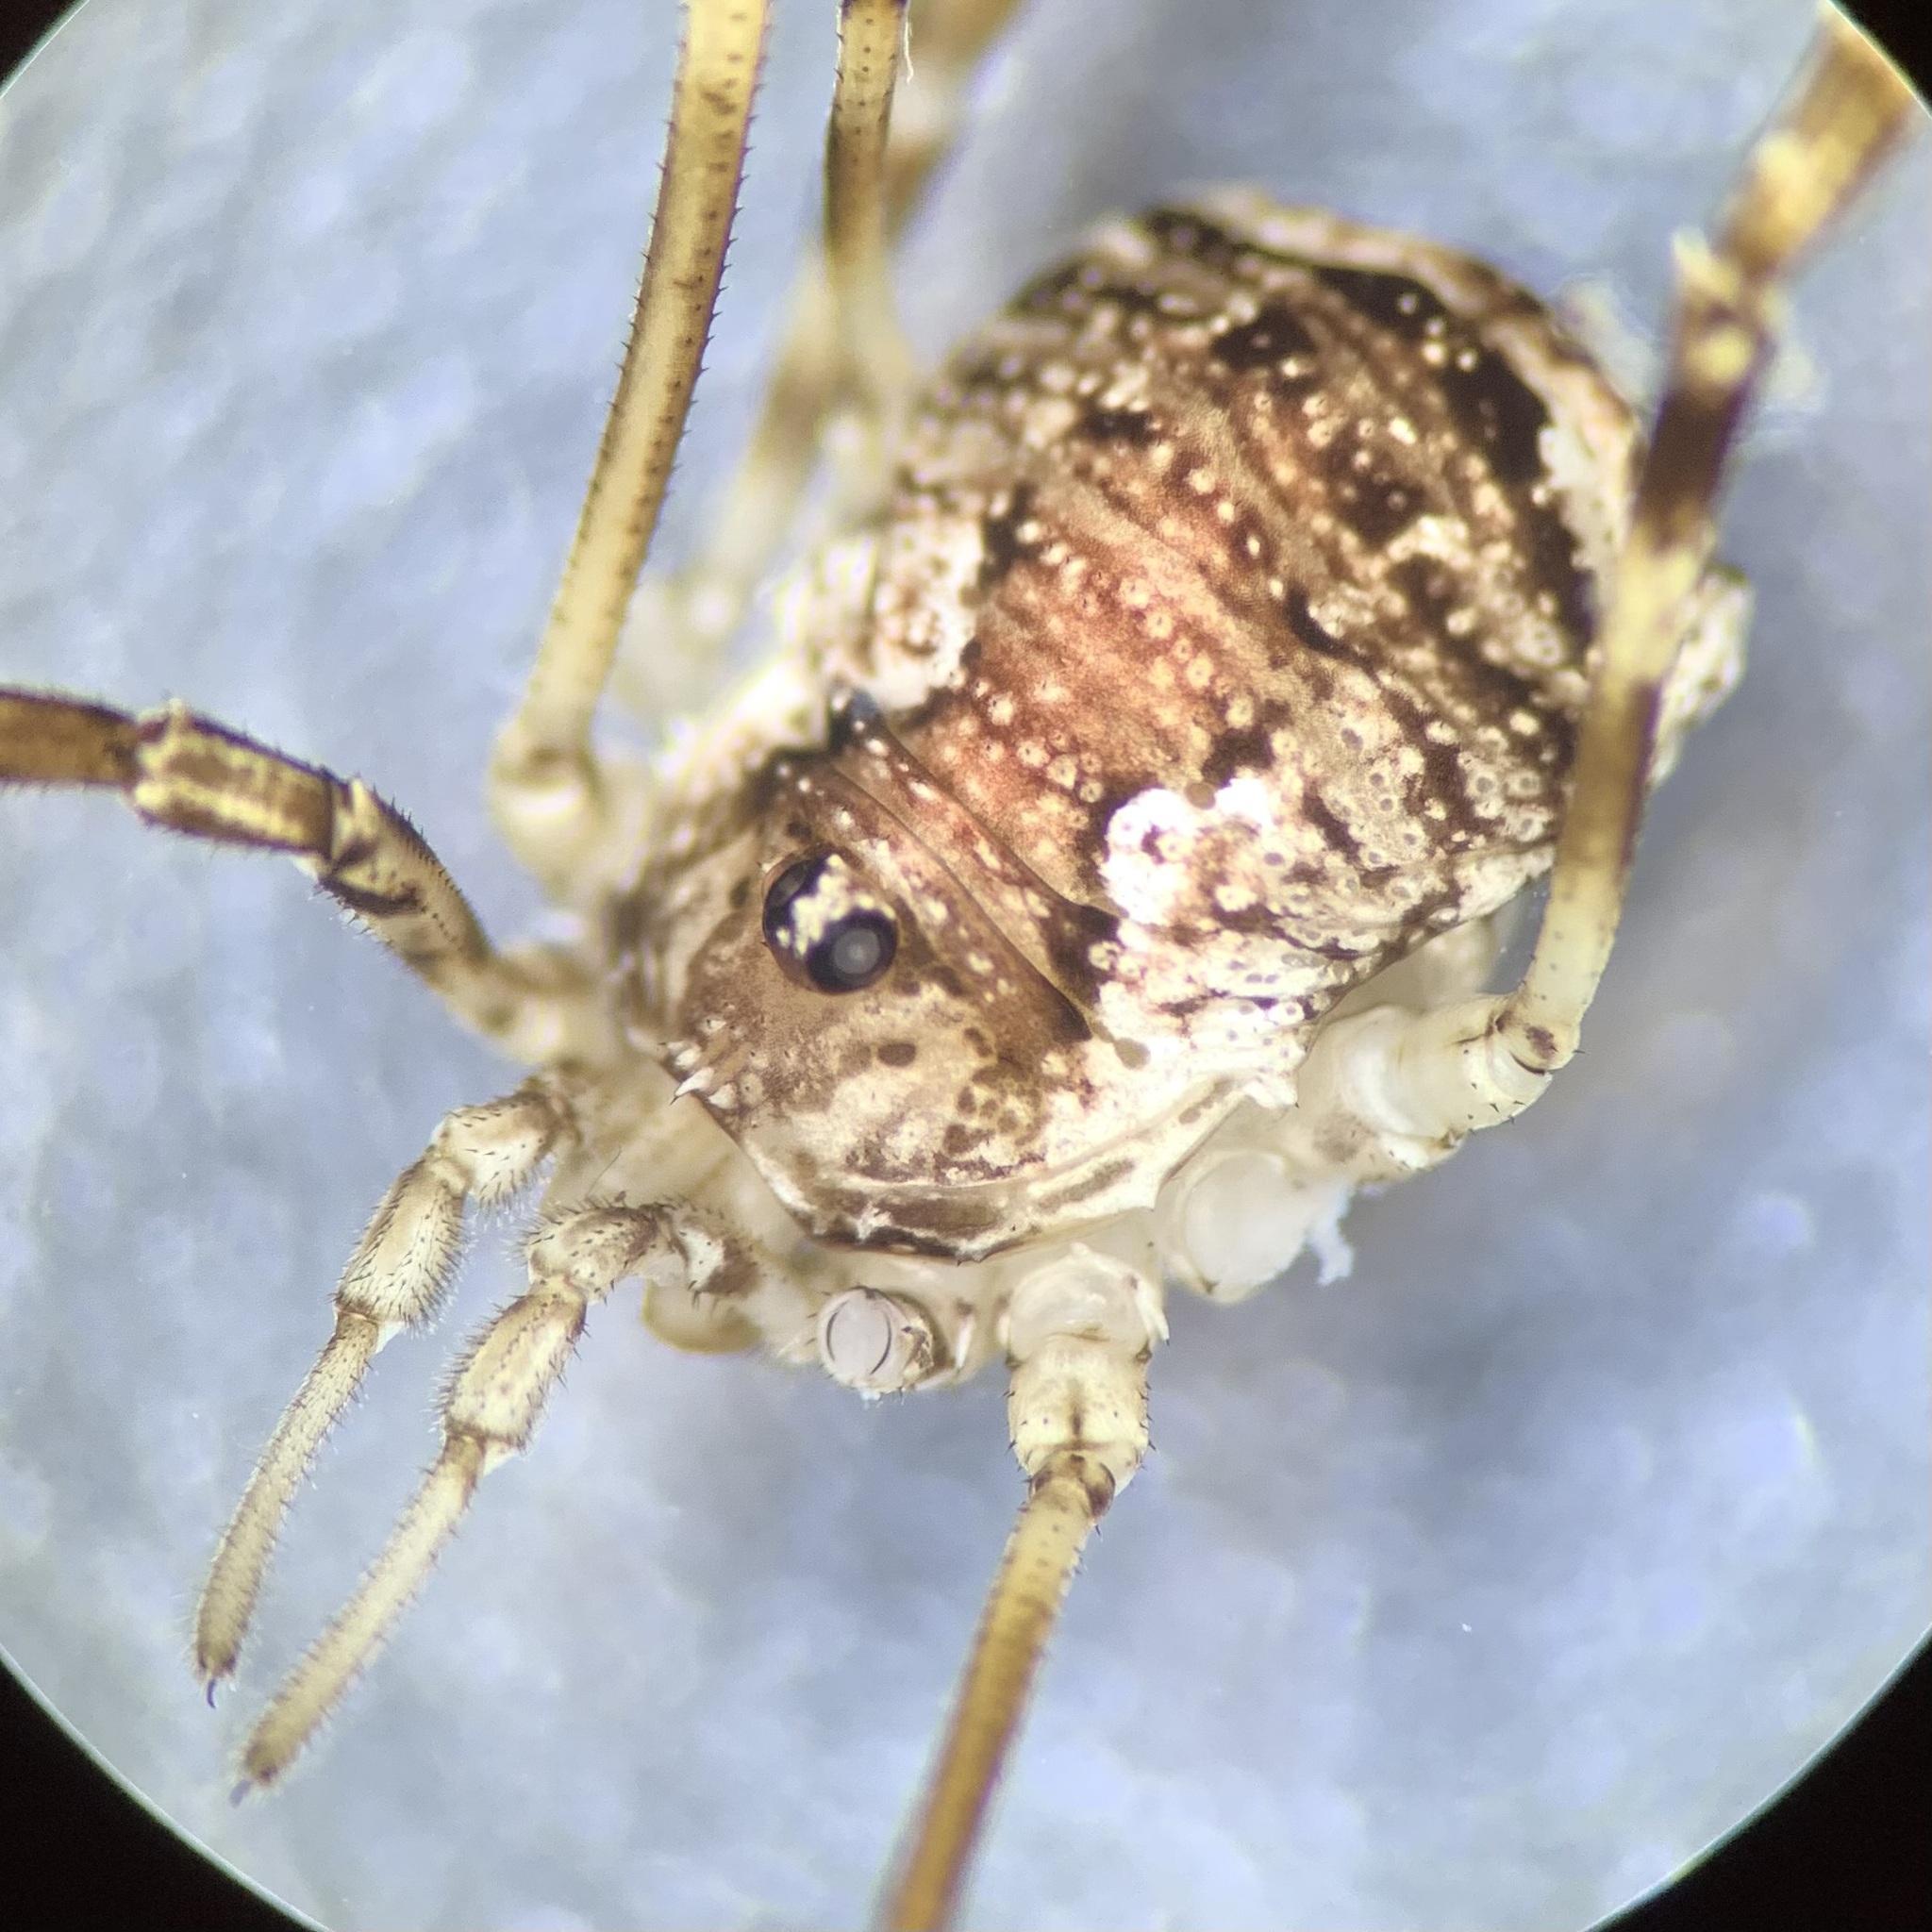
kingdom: Animalia
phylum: Arthropoda
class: Arachnida
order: Opiliones
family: Phalangiidae
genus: Oligolophus
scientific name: Oligolophus hansenii
